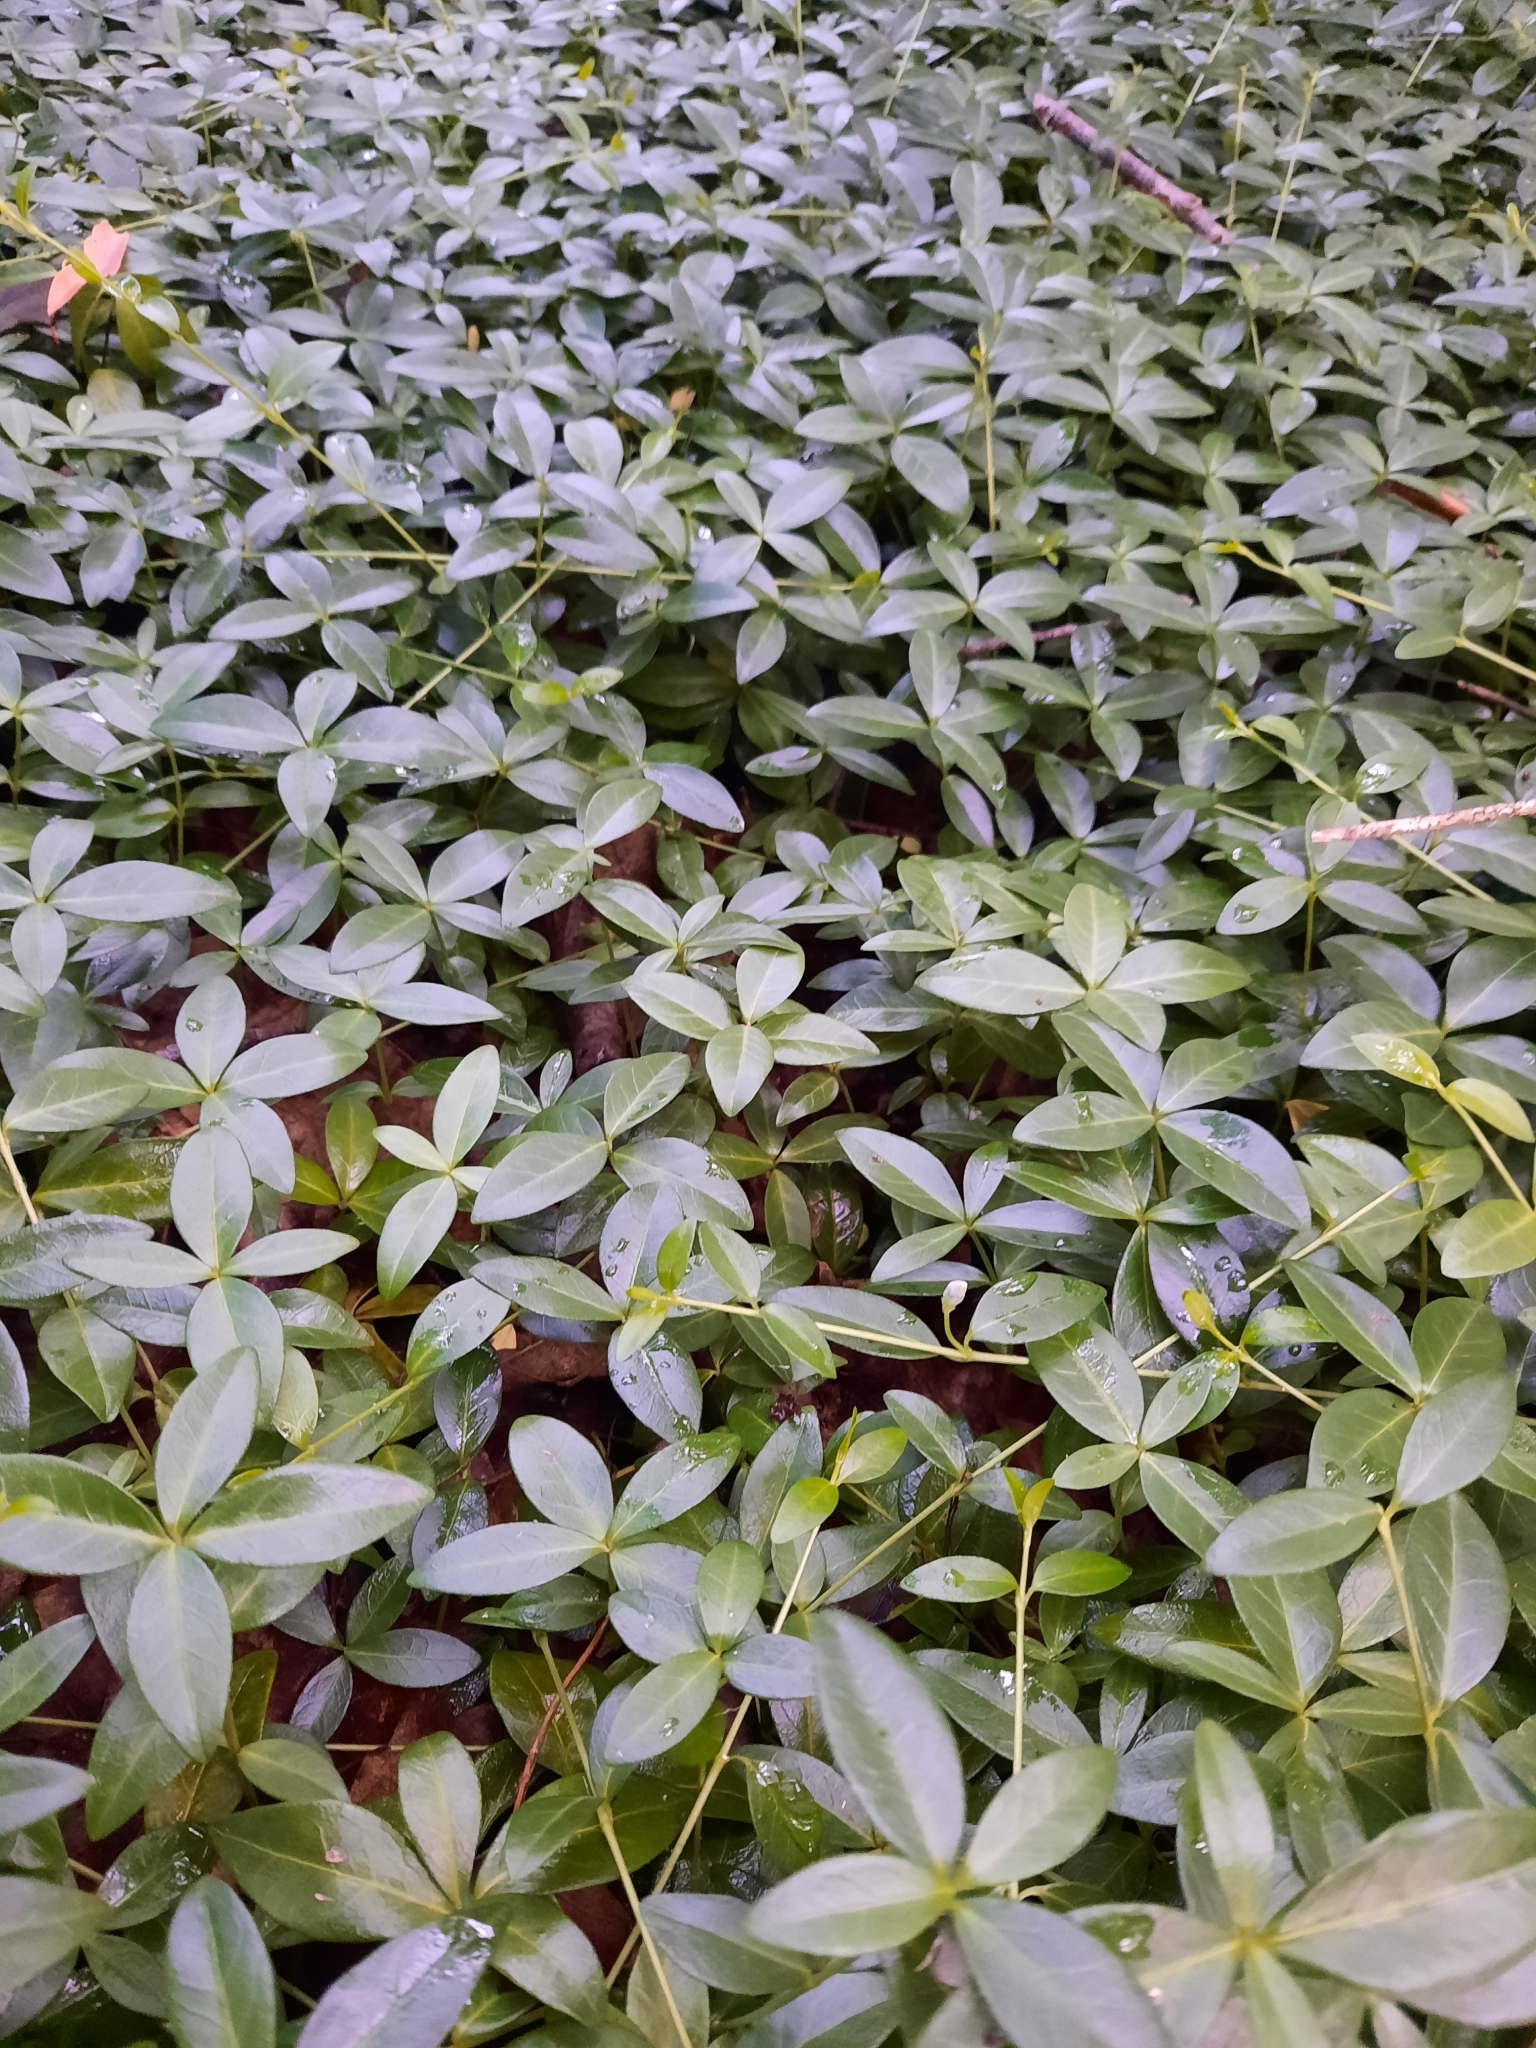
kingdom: Plantae
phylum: Tracheophyta
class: Magnoliopsida
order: Gentianales
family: Apocynaceae
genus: Vinca
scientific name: Vinca minor
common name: Lesser periwinkle
